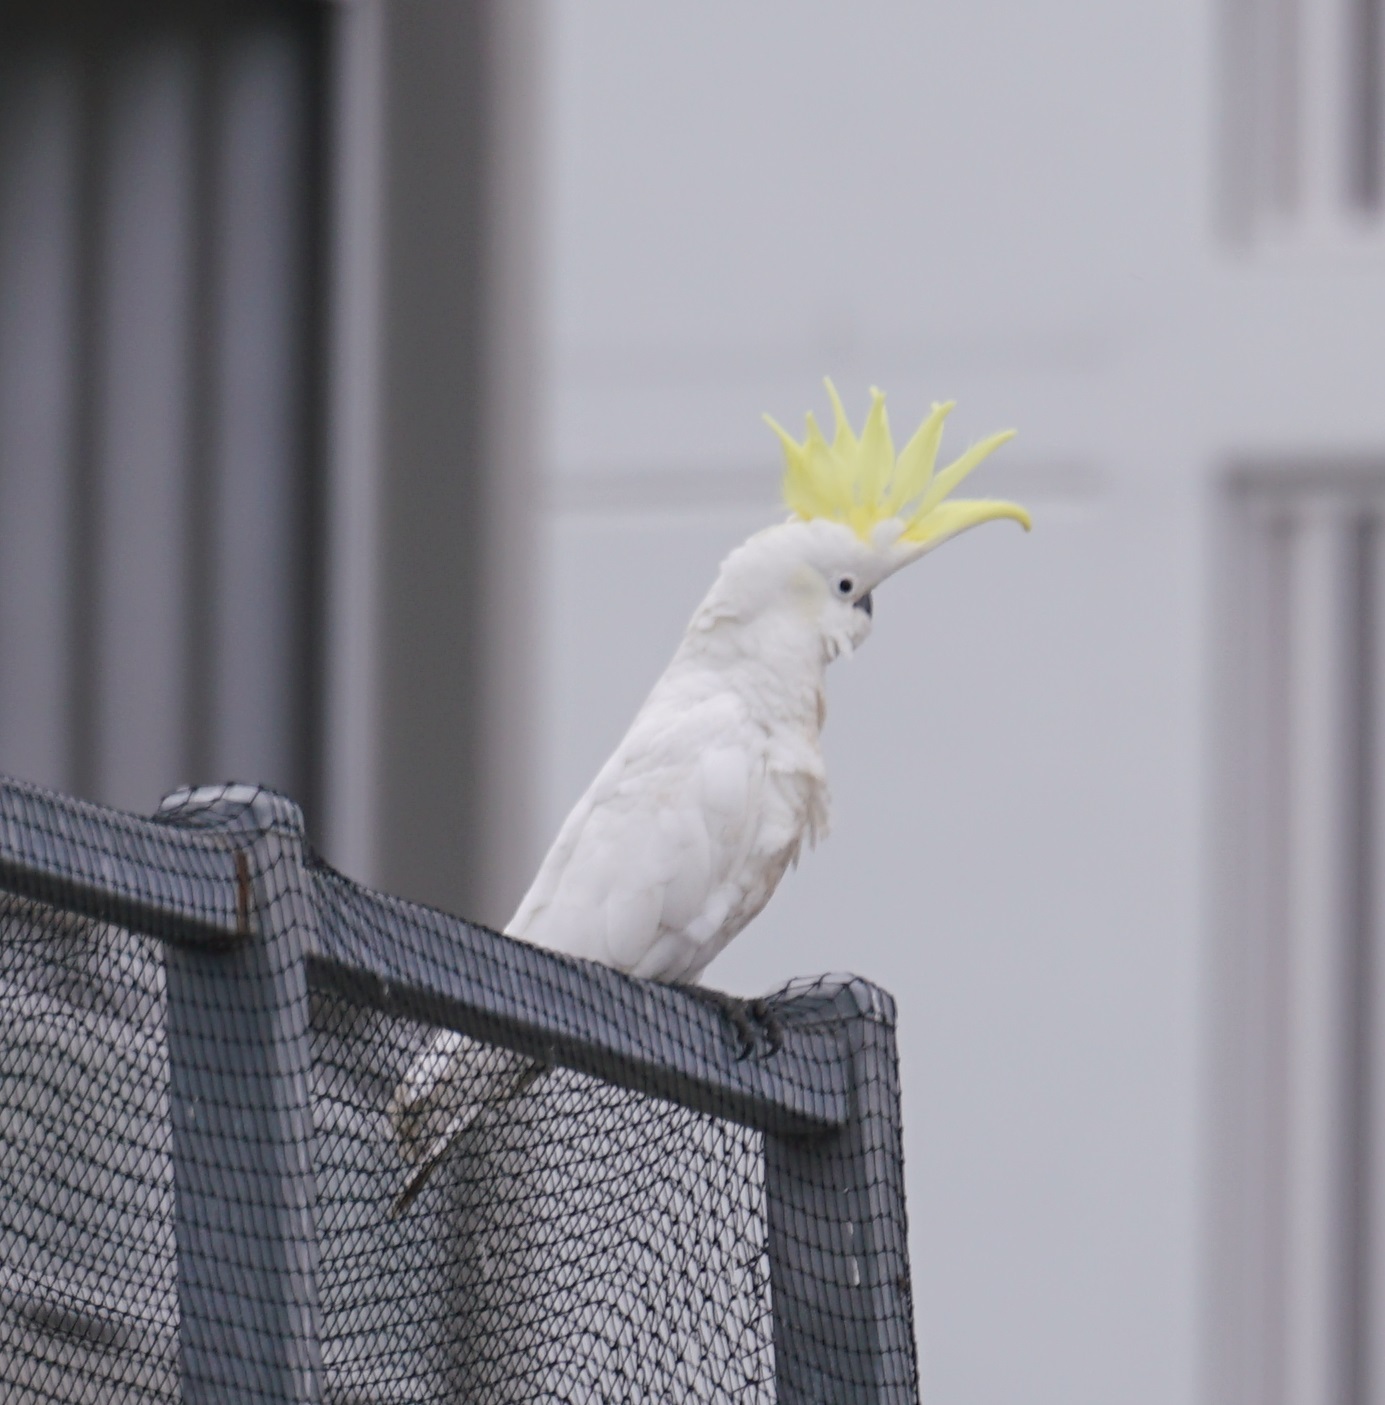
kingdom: Animalia
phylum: Chordata
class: Aves
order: Psittaciformes
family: Psittacidae
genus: Cacatua
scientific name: Cacatua galerita
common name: Sulphur-crested cockatoo
